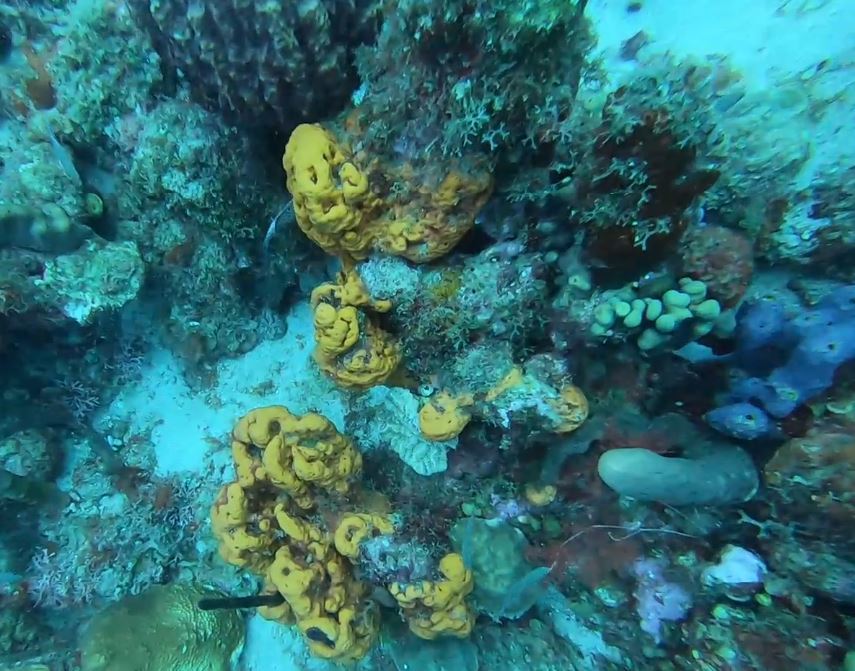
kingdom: Animalia
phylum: Porifera
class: Demospongiae
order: Agelasida
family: Agelasidae
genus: Agelas
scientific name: Agelas clathrodes
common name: Orange elephant ear sponge
